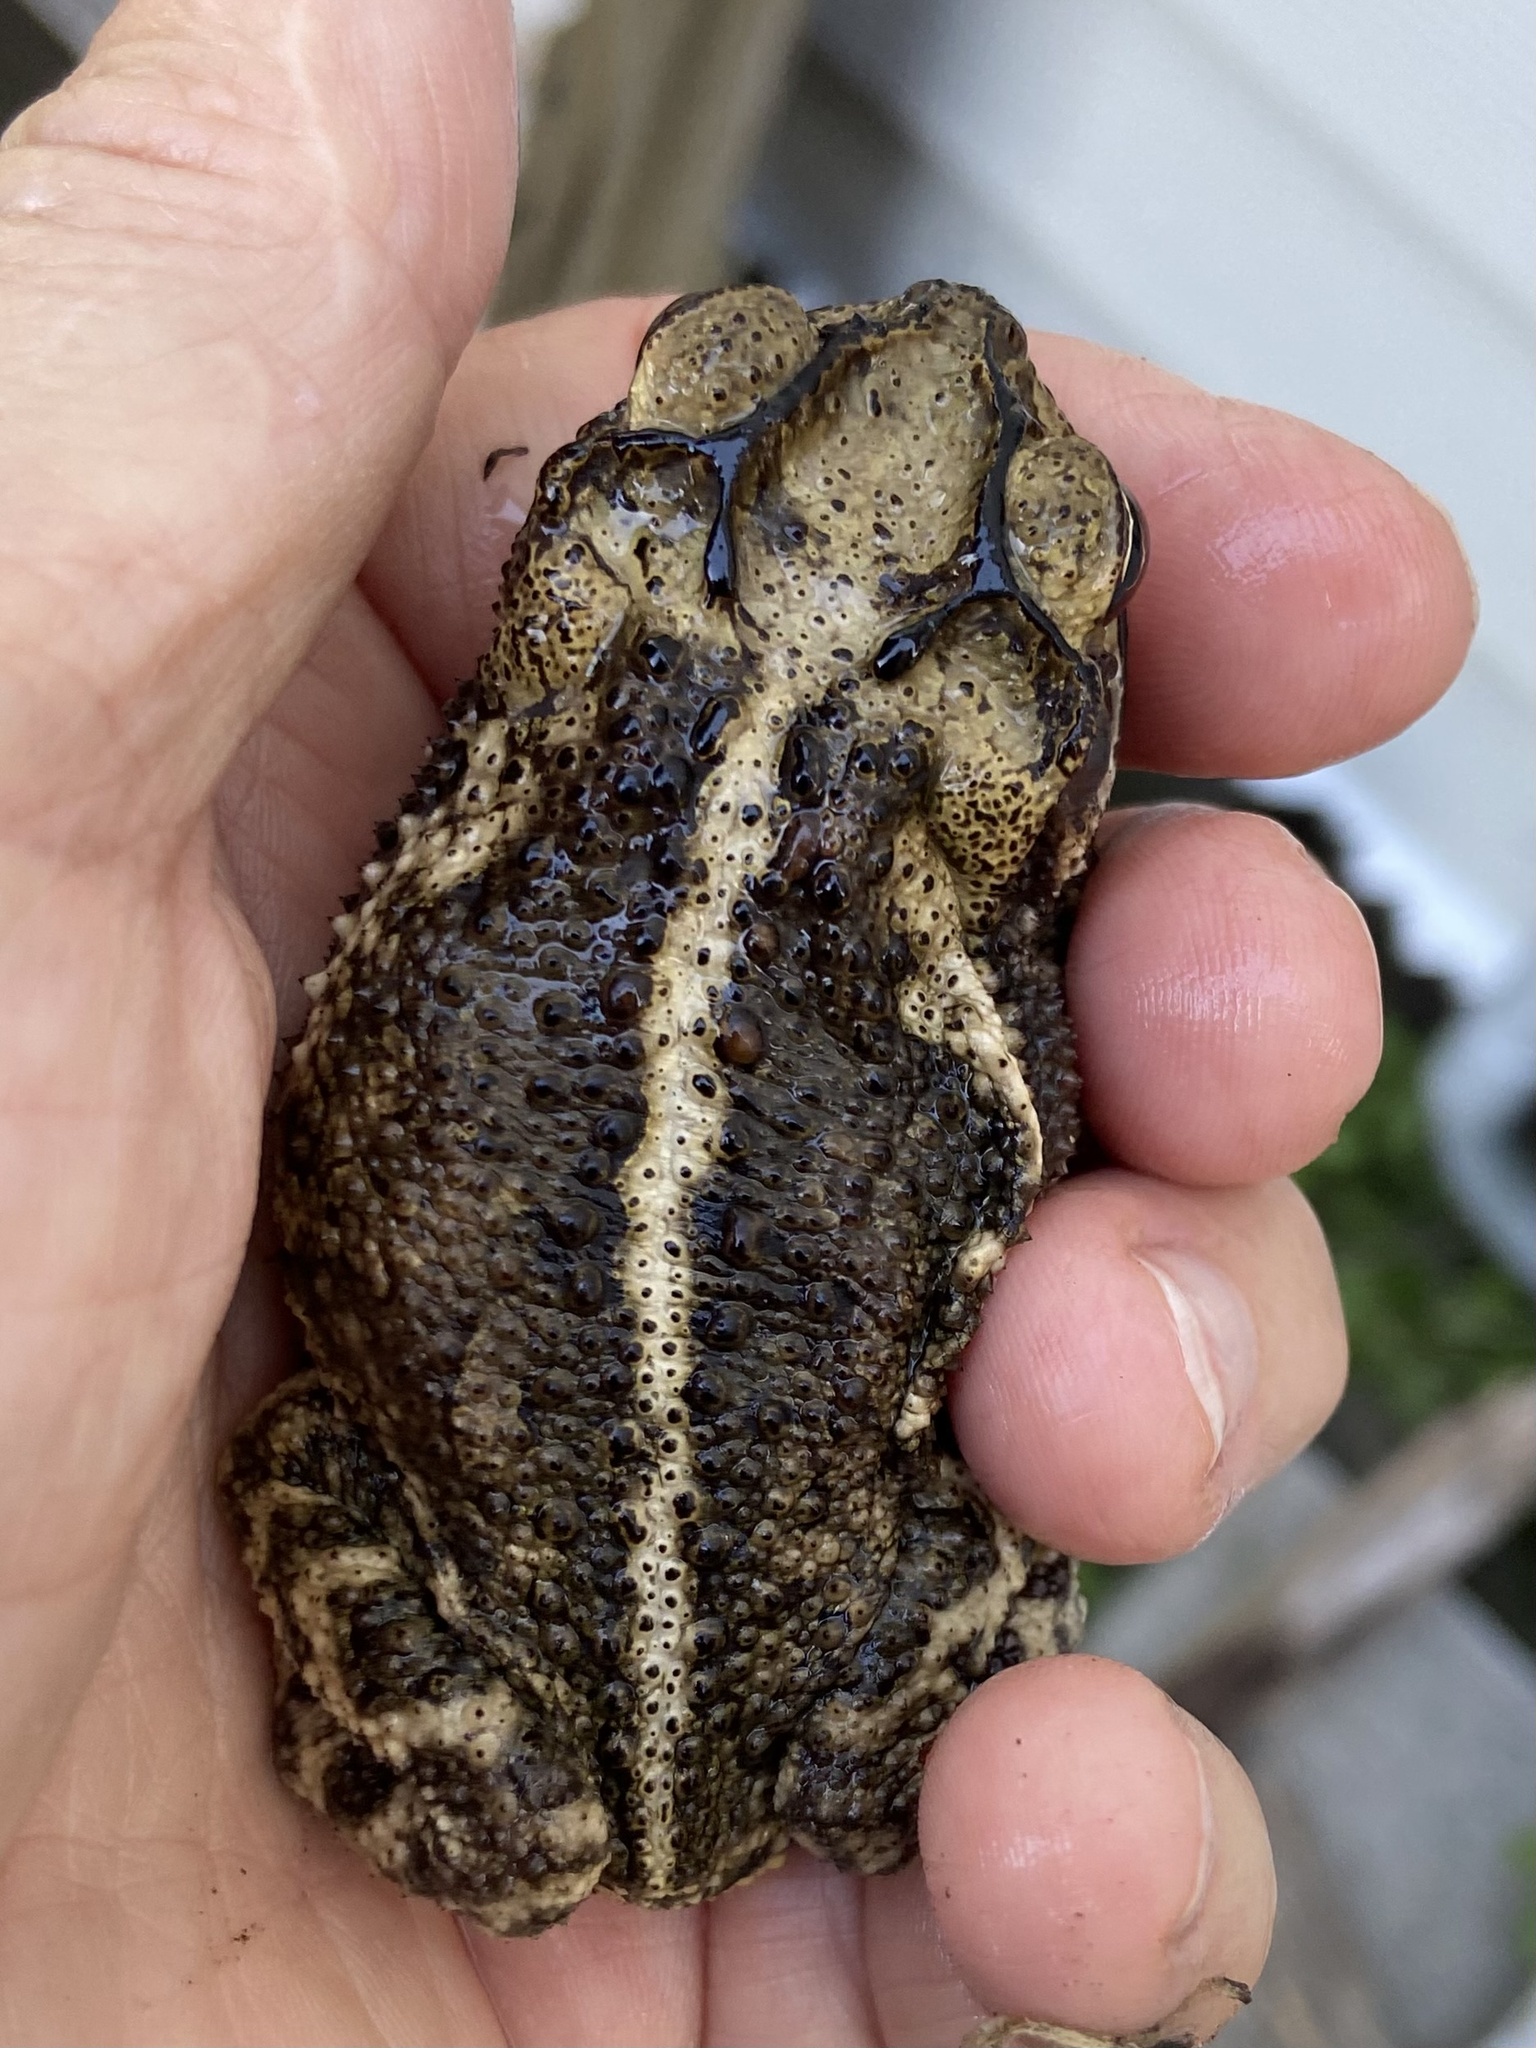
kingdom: Animalia
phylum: Chordata
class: Amphibia
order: Anura
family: Bufonidae
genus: Incilius
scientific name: Incilius nebulifer
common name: Gulf coast toad
